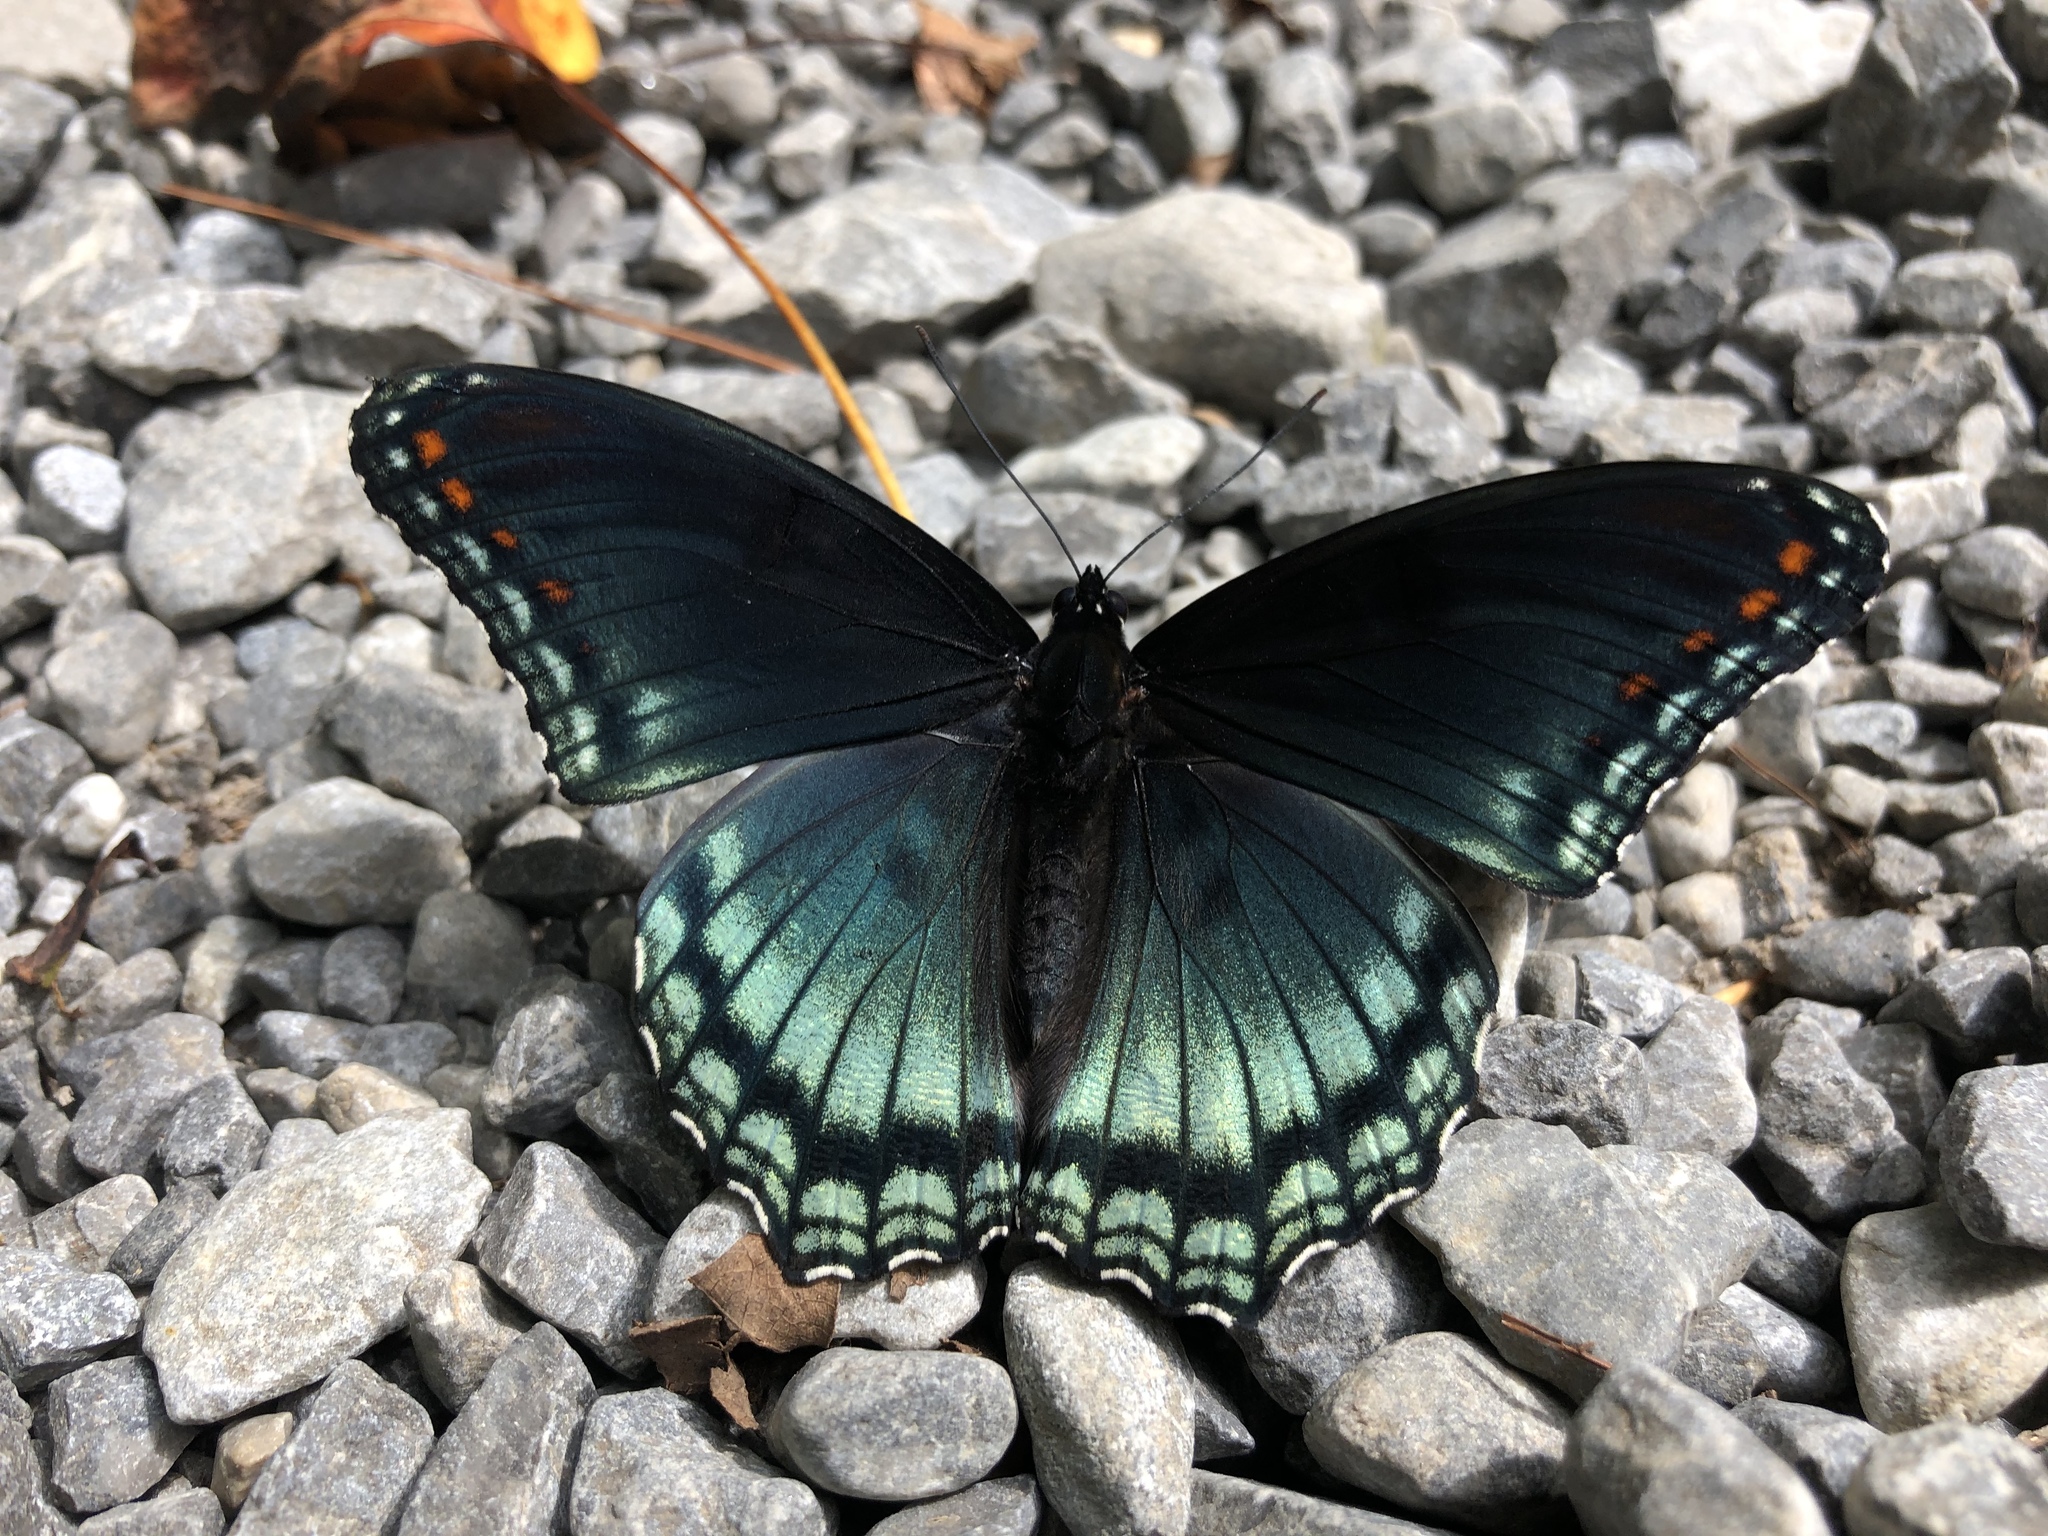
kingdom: Animalia
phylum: Arthropoda
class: Insecta
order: Lepidoptera
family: Nymphalidae
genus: Limenitis
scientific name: Limenitis arthemis
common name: Red-spotted admiral
